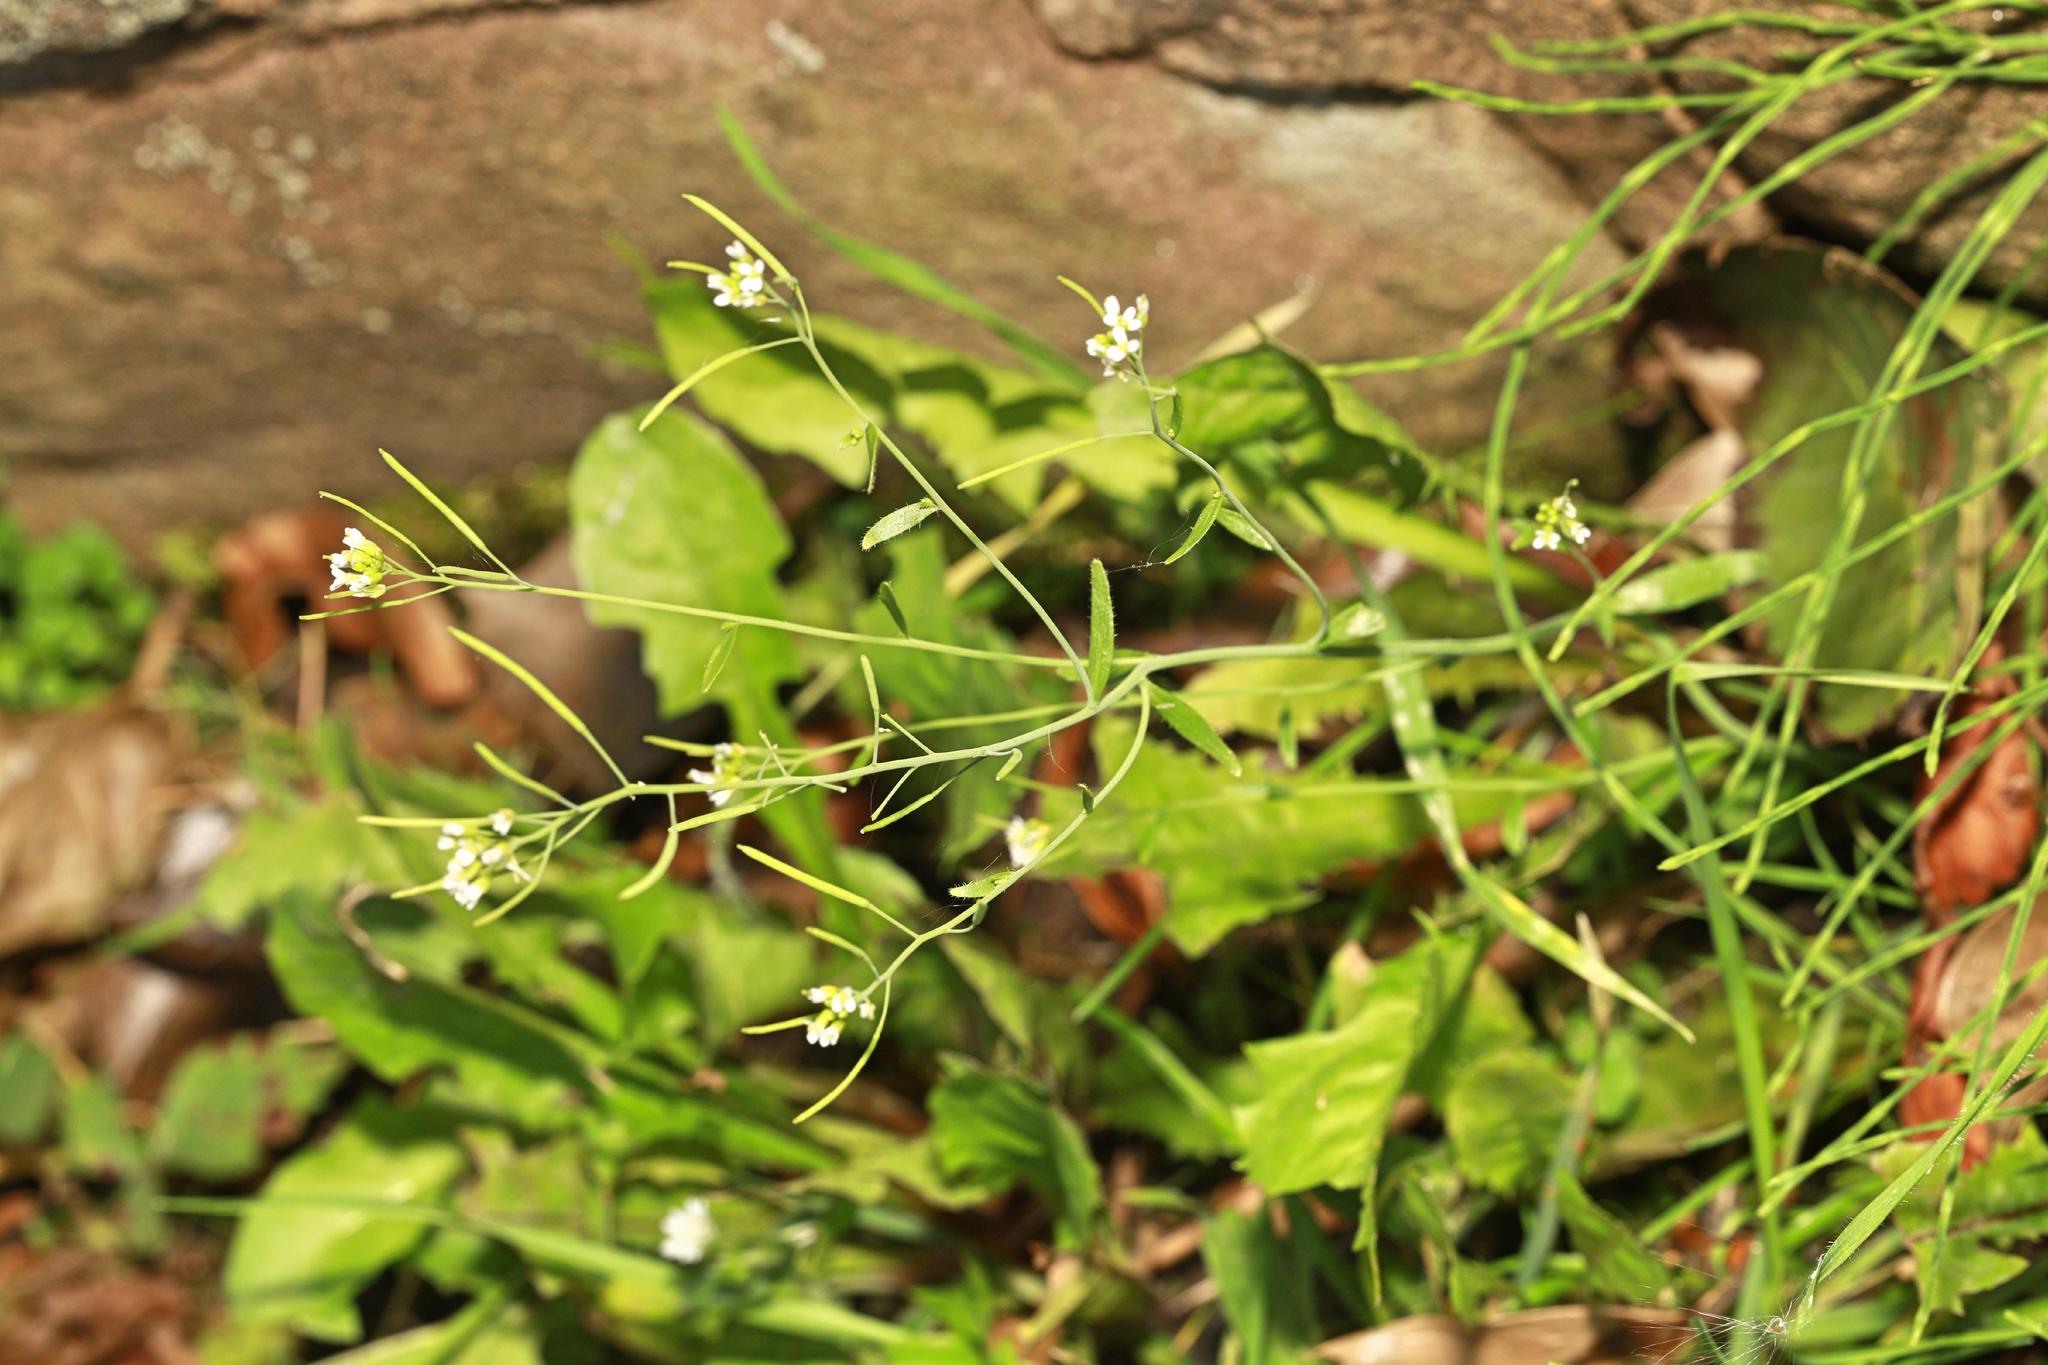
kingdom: Plantae
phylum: Tracheophyta
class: Magnoliopsida
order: Brassicales
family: Brassicaceae
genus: Arabidopsis
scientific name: Arabidopsis thaliana
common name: Thale cress
